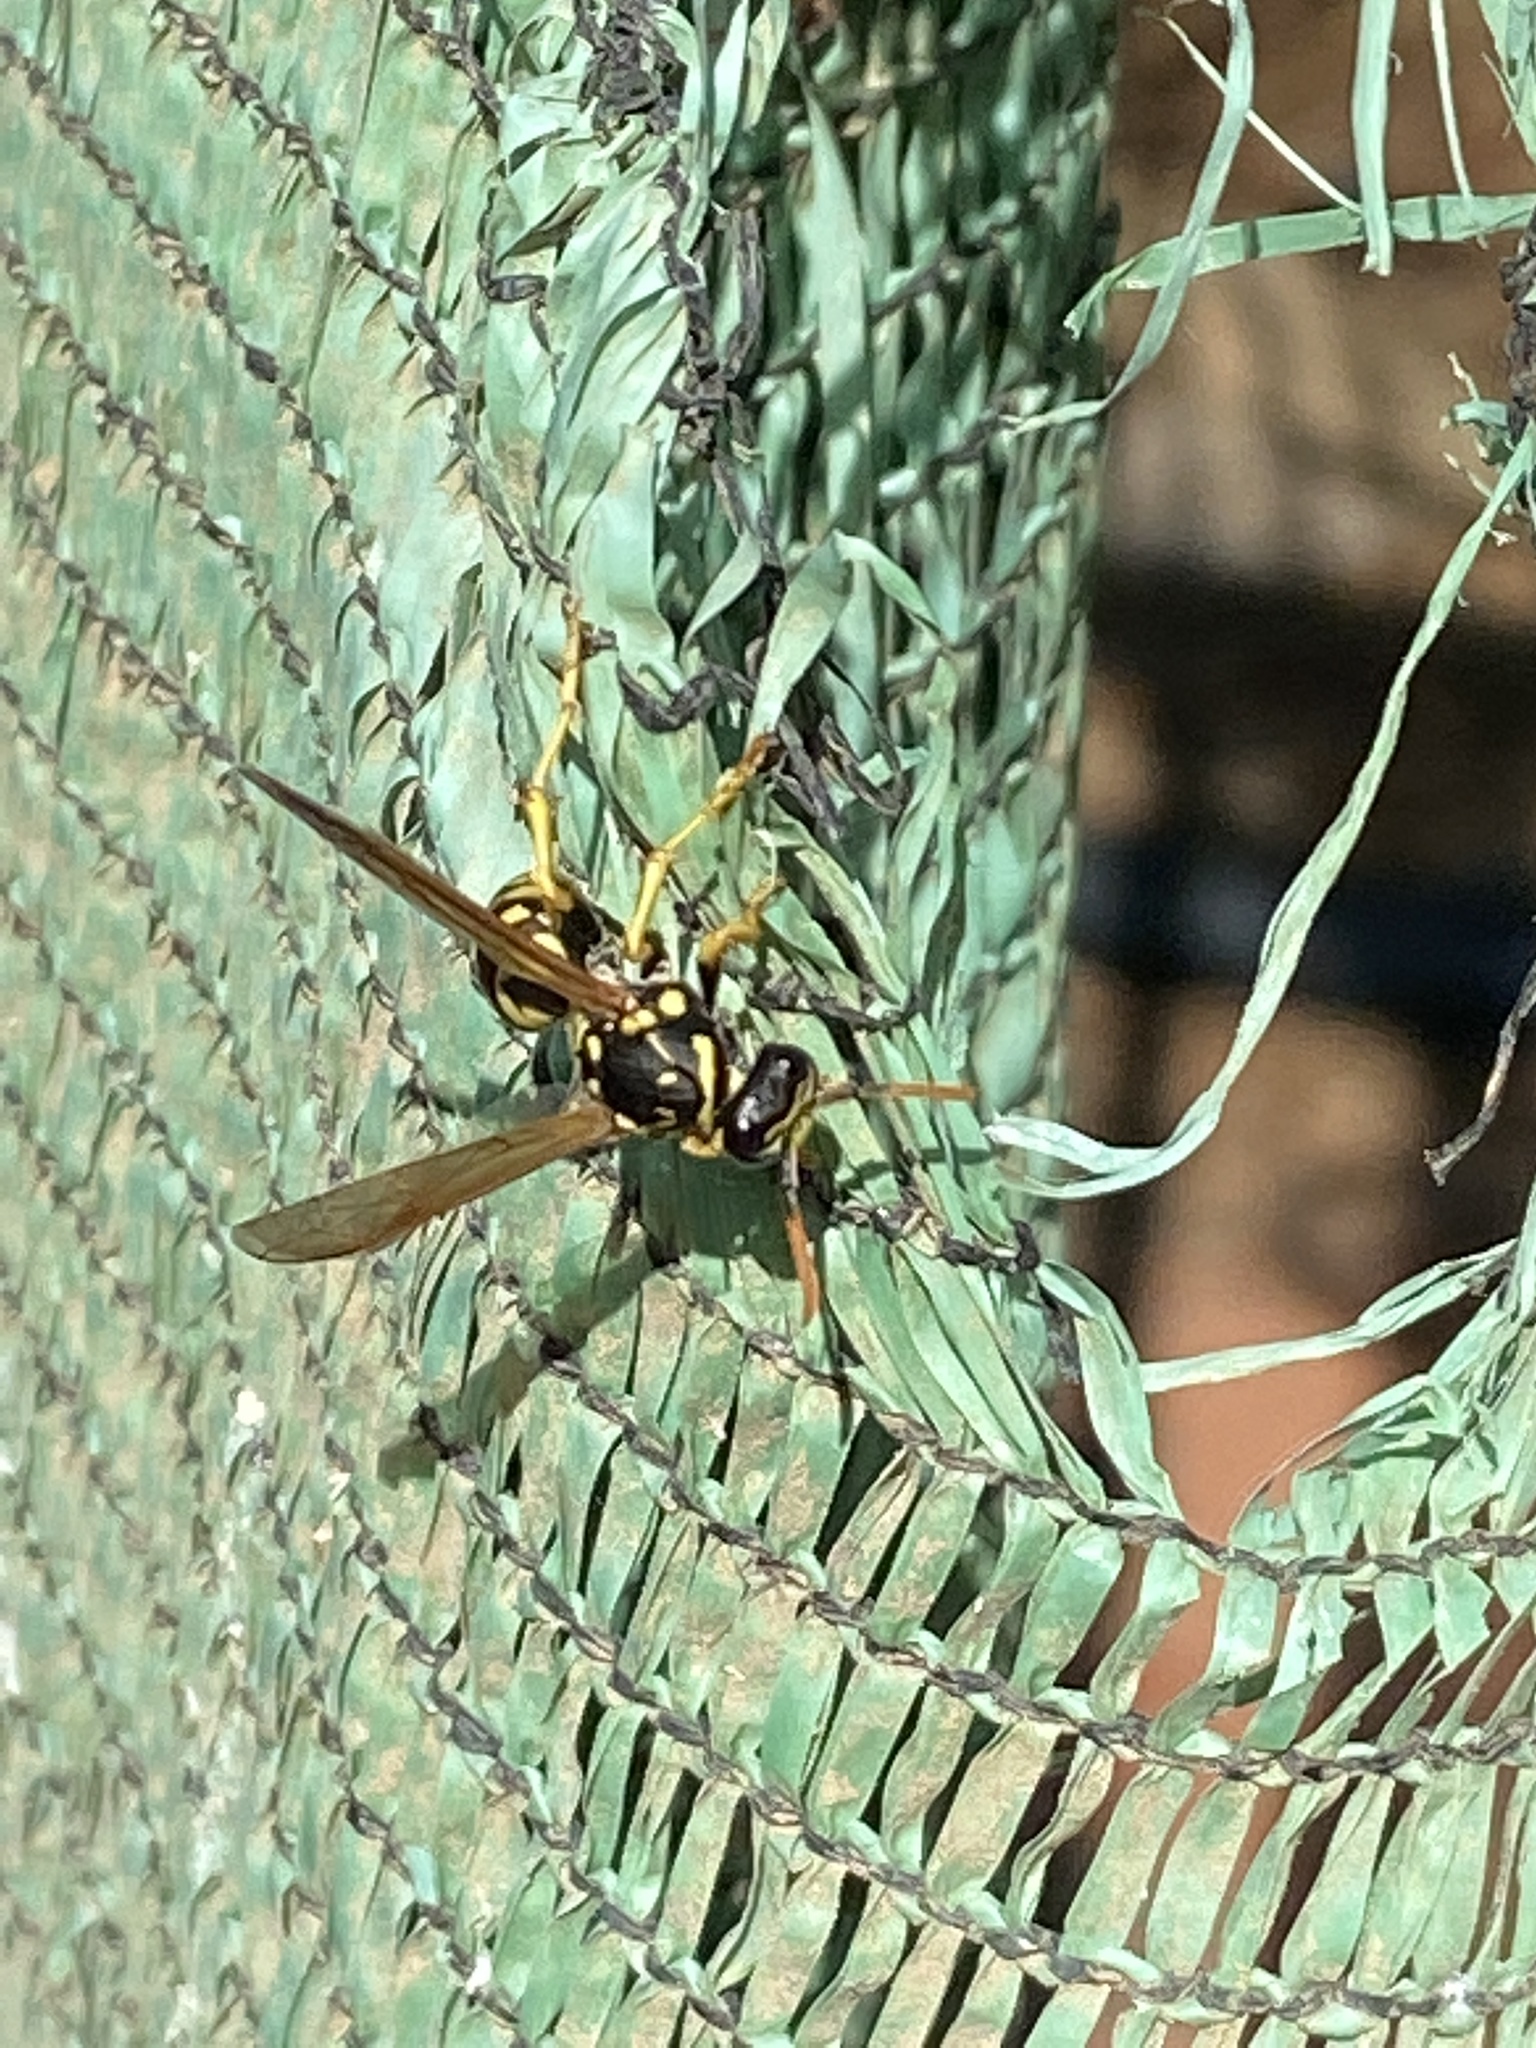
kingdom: Animalia
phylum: Arthropoda
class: Insecta
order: Hymenoptera
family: Eumenidae
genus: Polistes
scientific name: Polistes dominula
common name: Paper wasp
